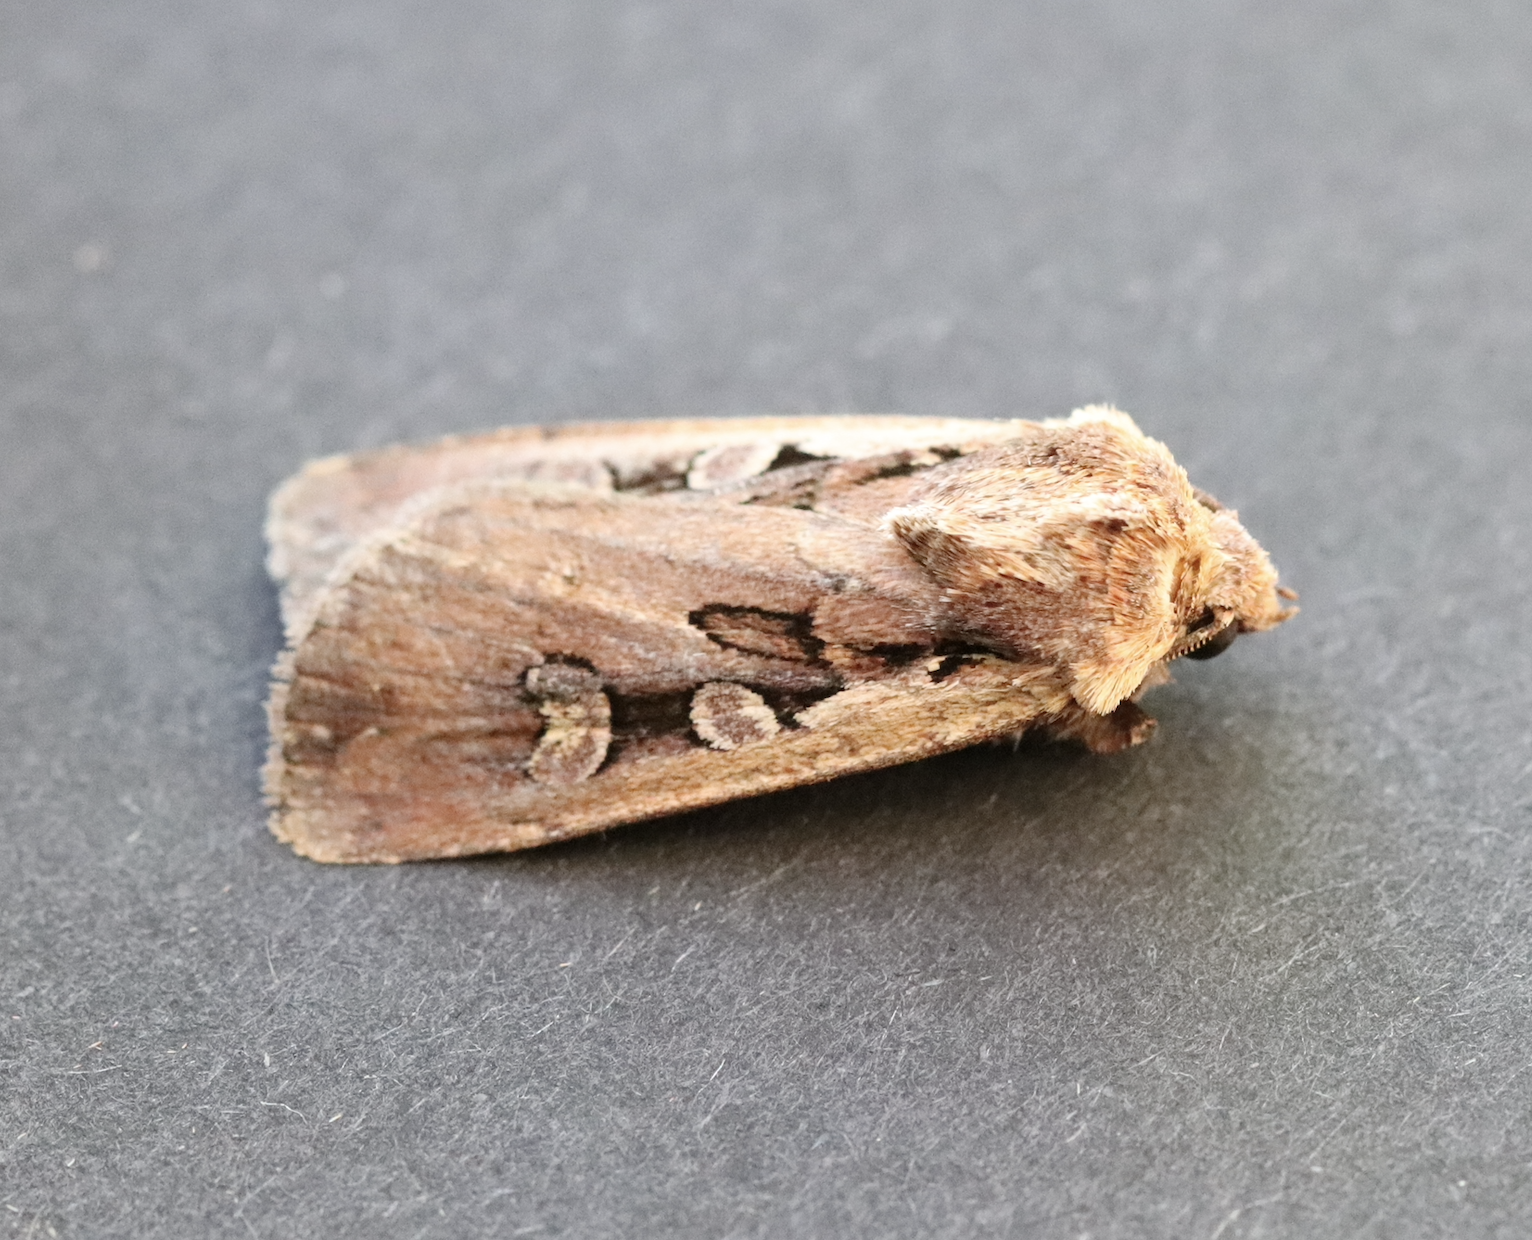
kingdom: Animalia
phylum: Arthropoda
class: Insecta
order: Lepidoptera
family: Noctuidae
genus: Euxoa
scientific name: Euxoa obelisca
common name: Square-spot dart
